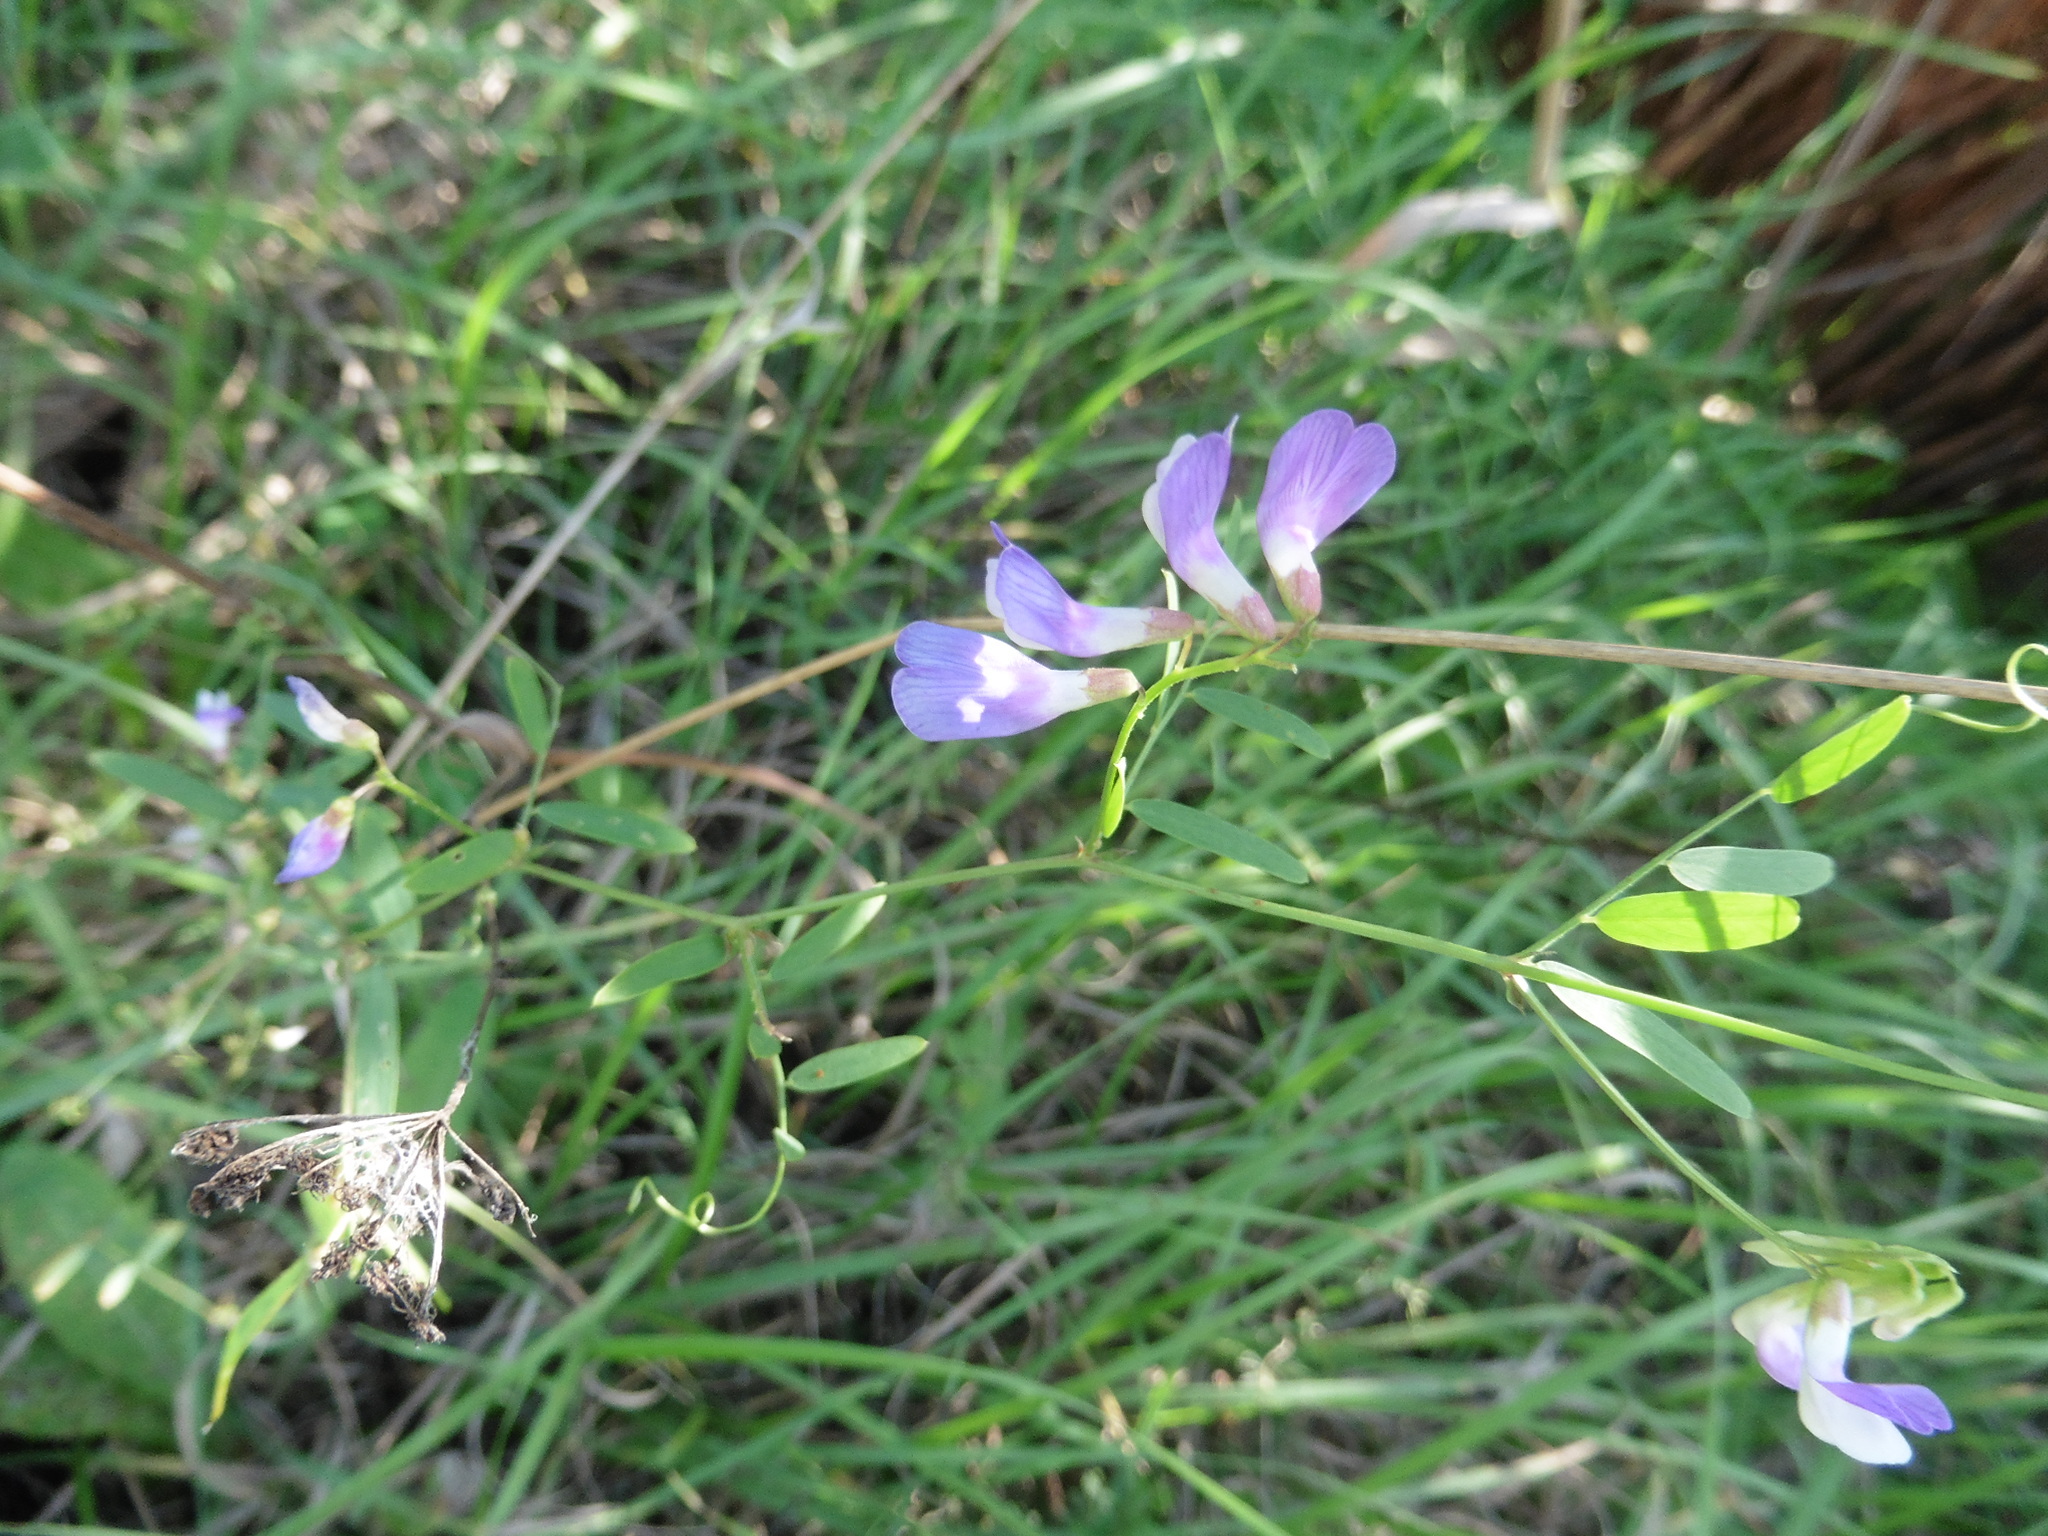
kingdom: Plantae
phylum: Tracheophyta
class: Magnoliopsida
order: Fabales
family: Fabaceae
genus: Vicia
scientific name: Vicia biennis
